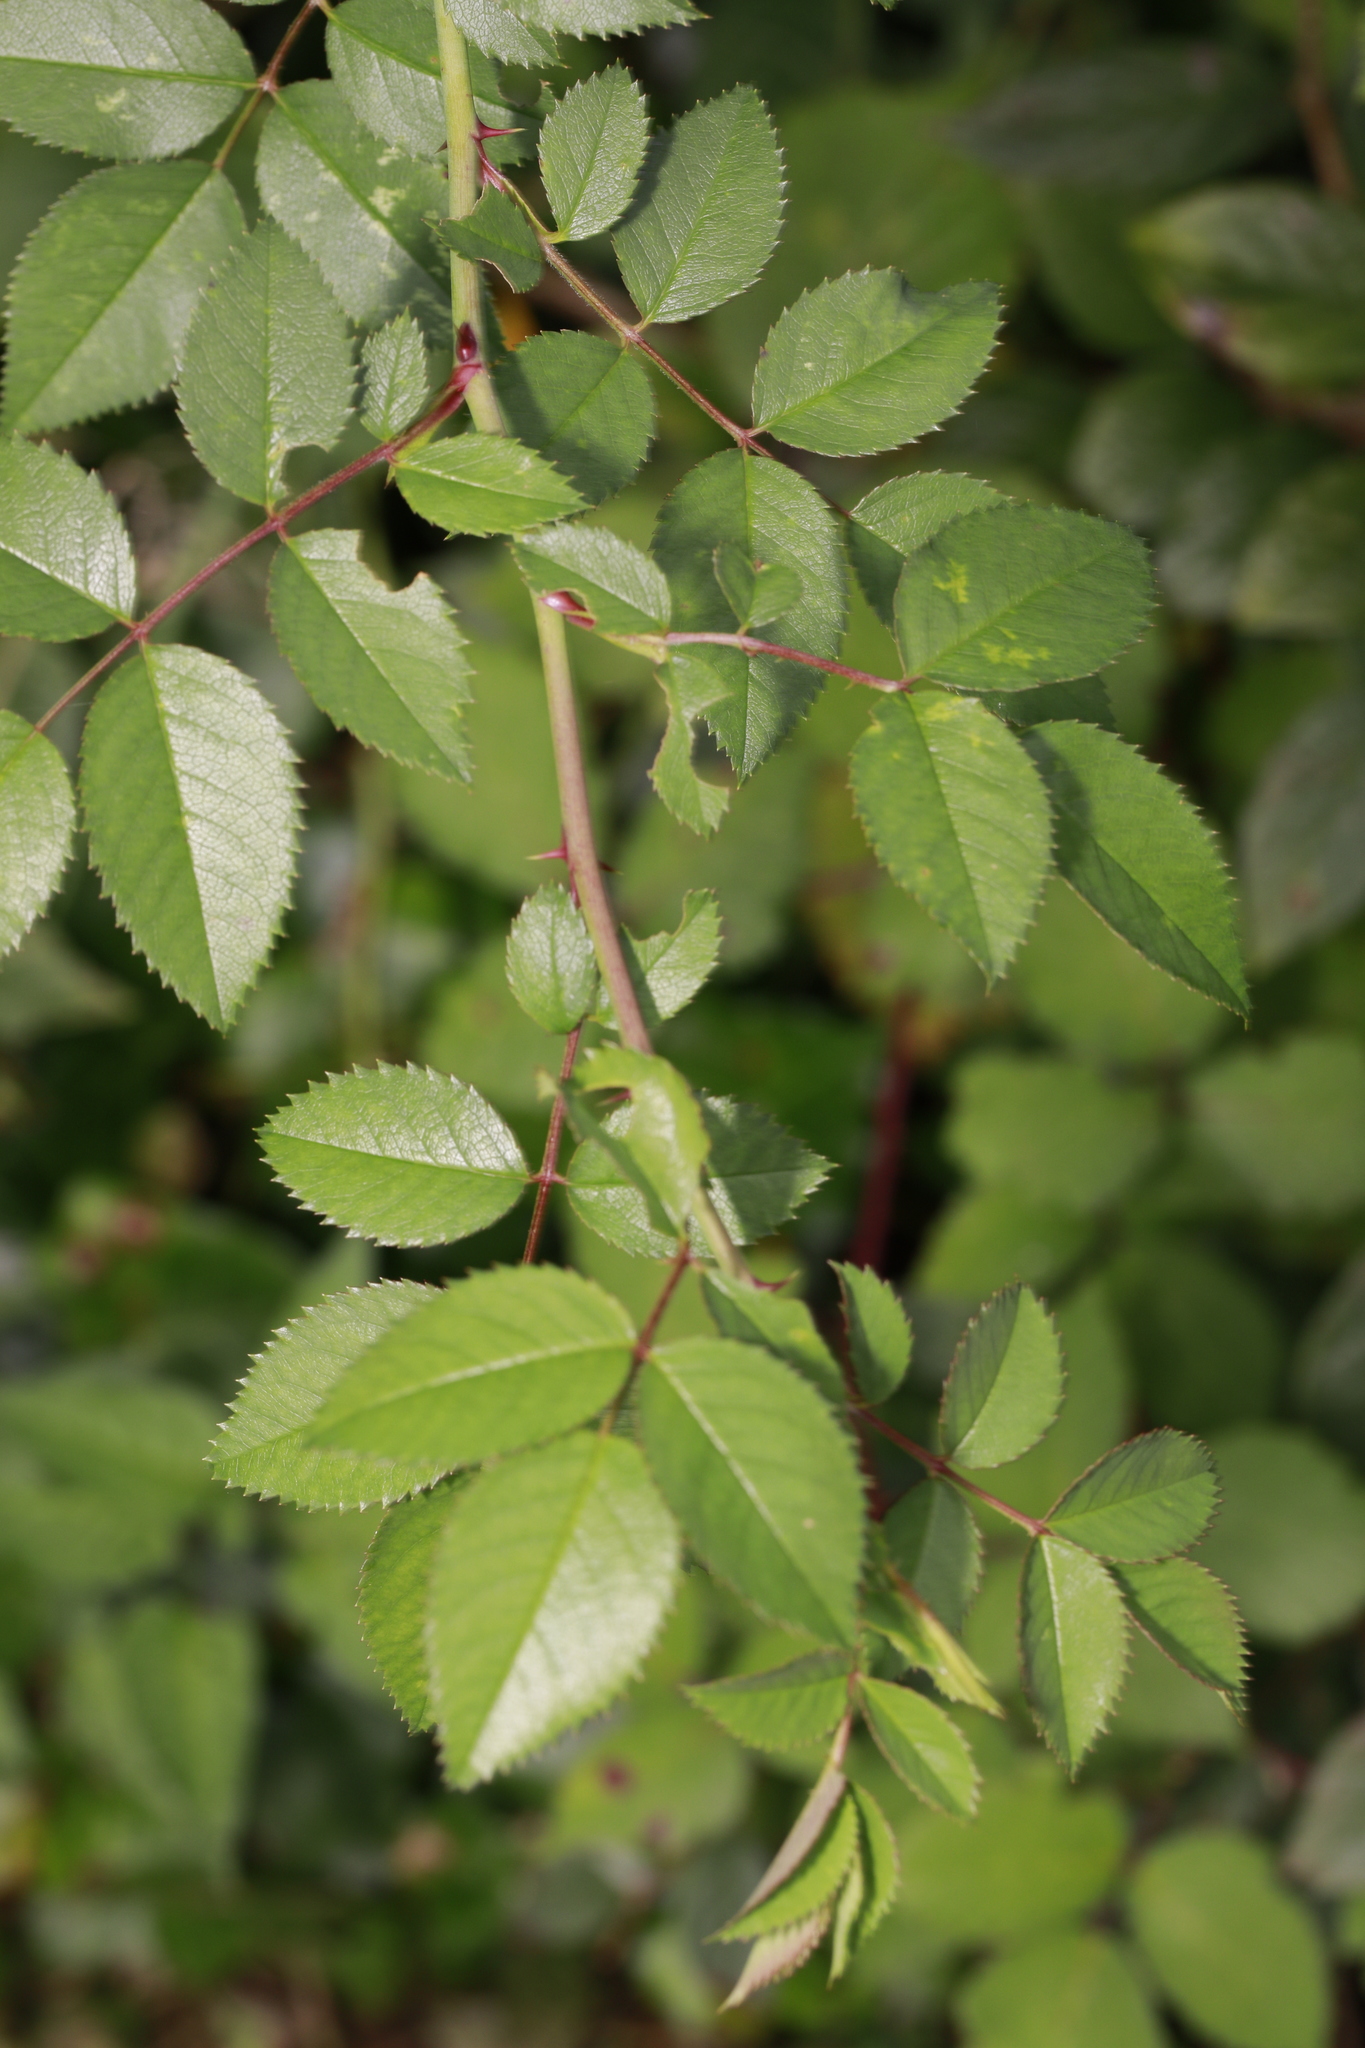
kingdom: Plantae
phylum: Tracheophyta
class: Magnoliopsida
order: Rosales
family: Rosaceae
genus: Rosa
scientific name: Rosa canina
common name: Dog rose
